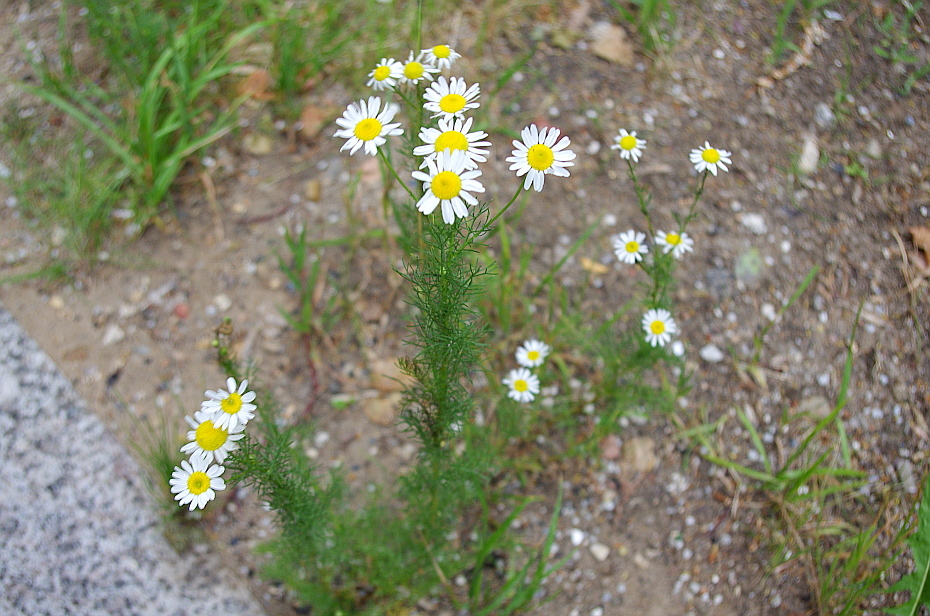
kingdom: Plantae
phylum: Tracheophyta
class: Magnoliopsida
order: Asterales
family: Asteraceae
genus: Tripleurospermum
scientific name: Tripleurospermum inodorum
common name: Scentless mayweed
